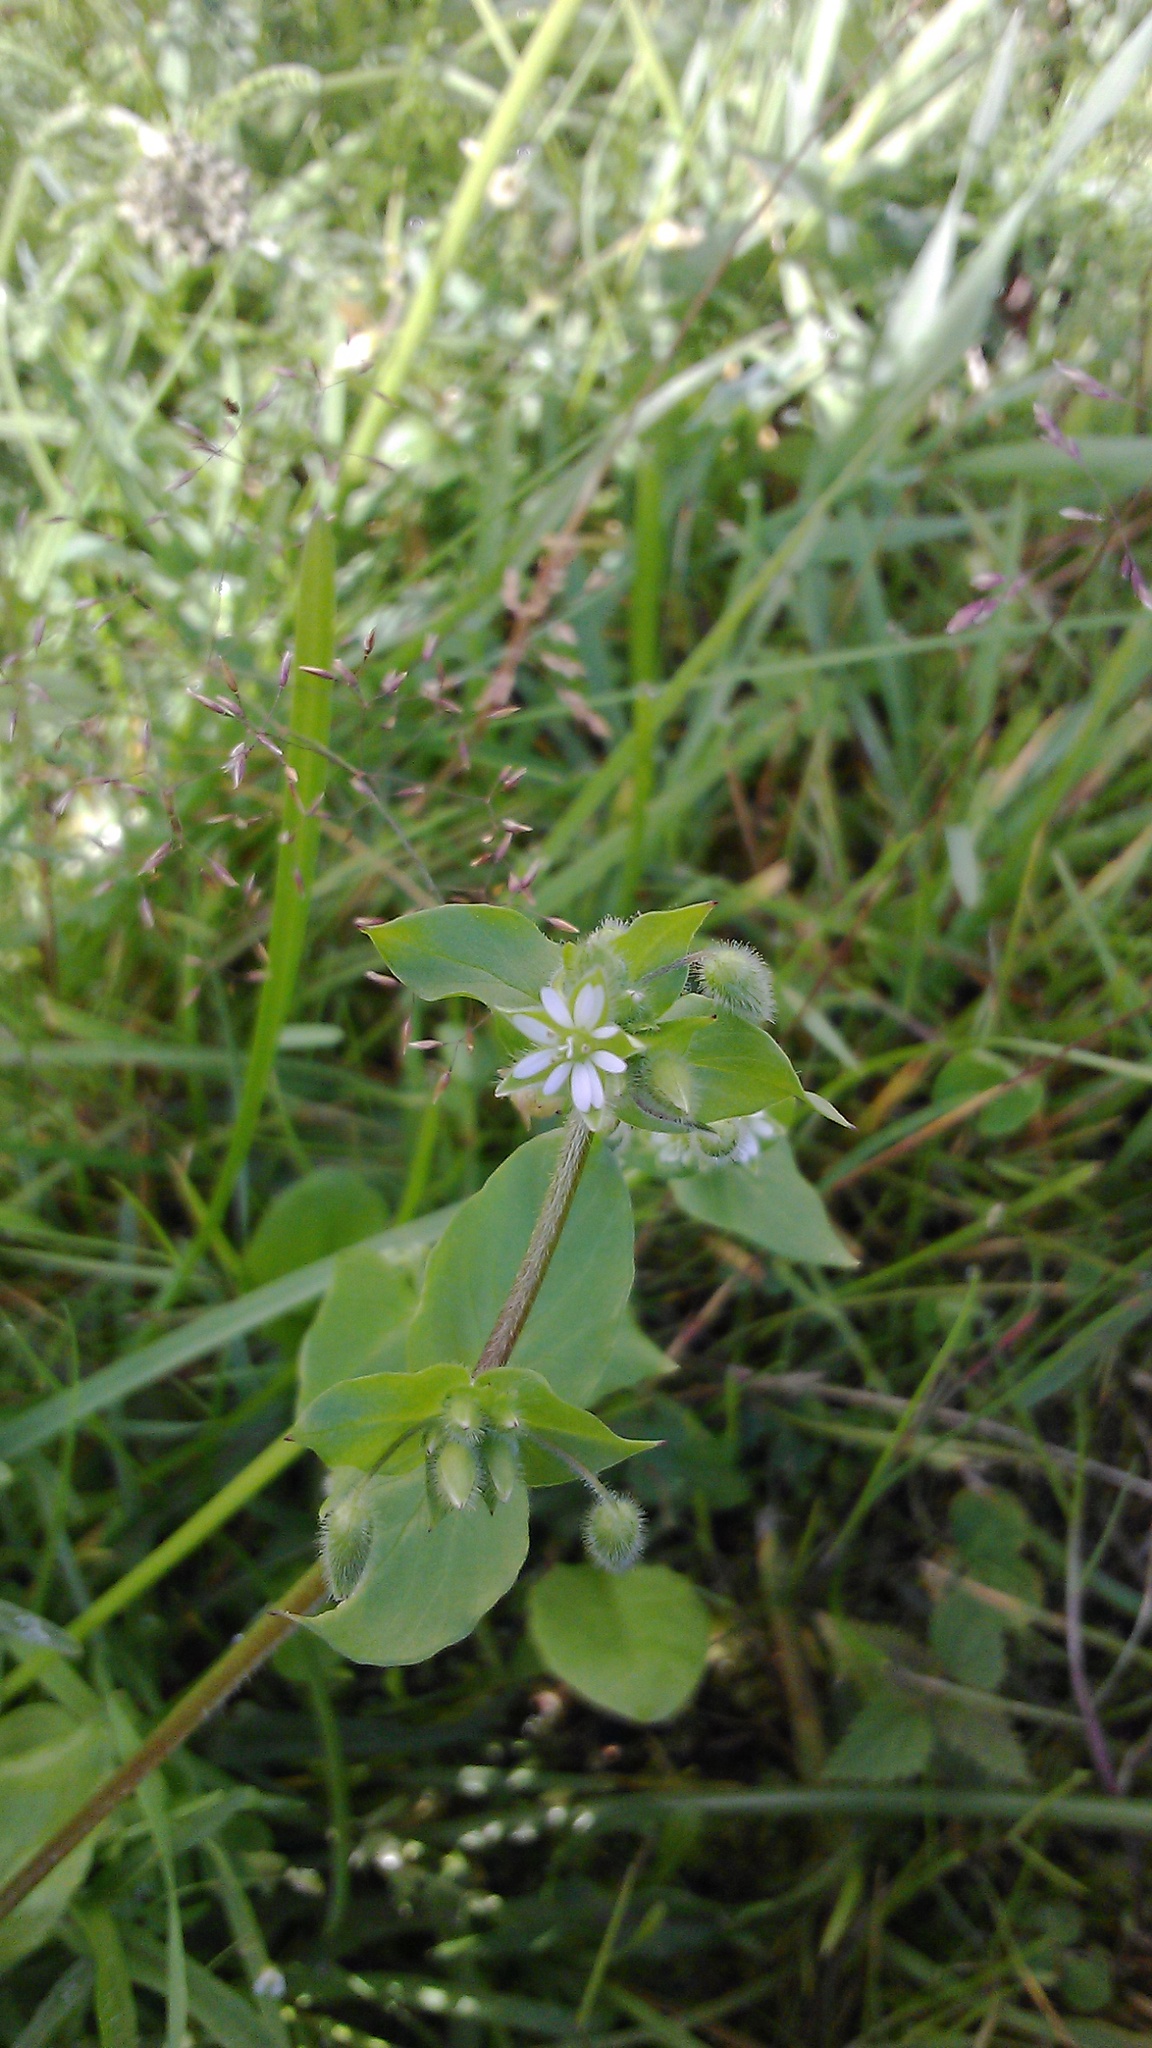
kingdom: Plantae
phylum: Tracheophyta
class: Magnoliopsida
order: Caryophyllales
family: Caryophyllaceae
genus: Stellaria
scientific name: Stellaria media
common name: Common chickweed
